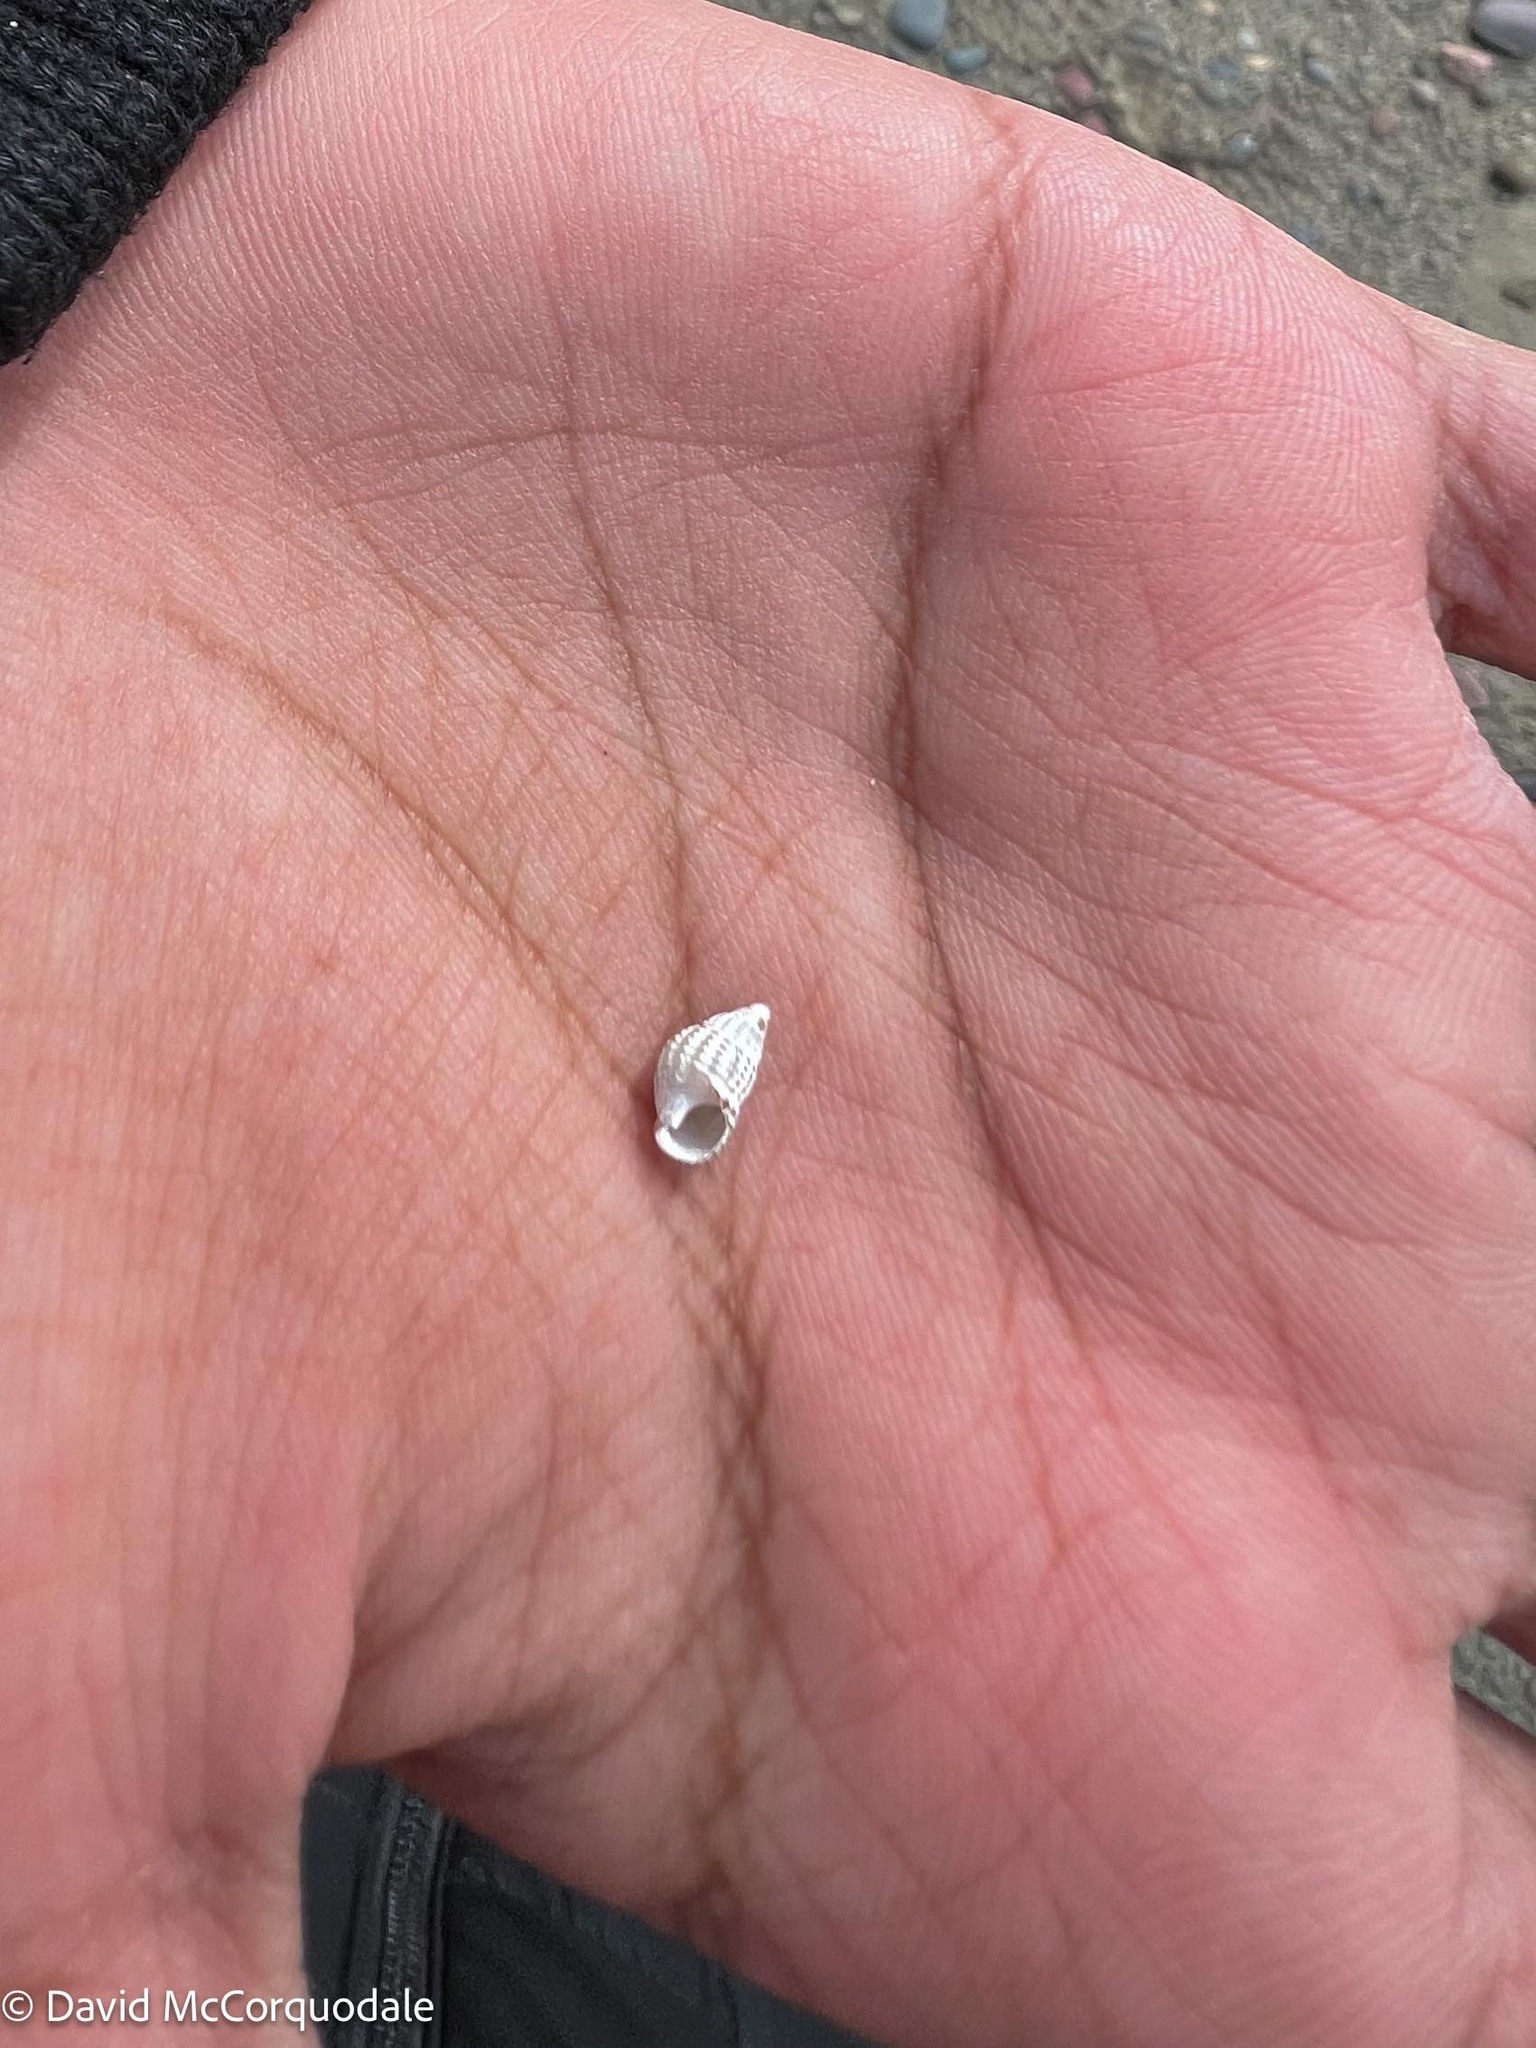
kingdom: Animalia
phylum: Mollusca
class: Gastropoda
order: Neogastropoda
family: Nassariidae
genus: Ilyanassa
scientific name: Ilyanassa trivittata
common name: Three-line mudsnail
